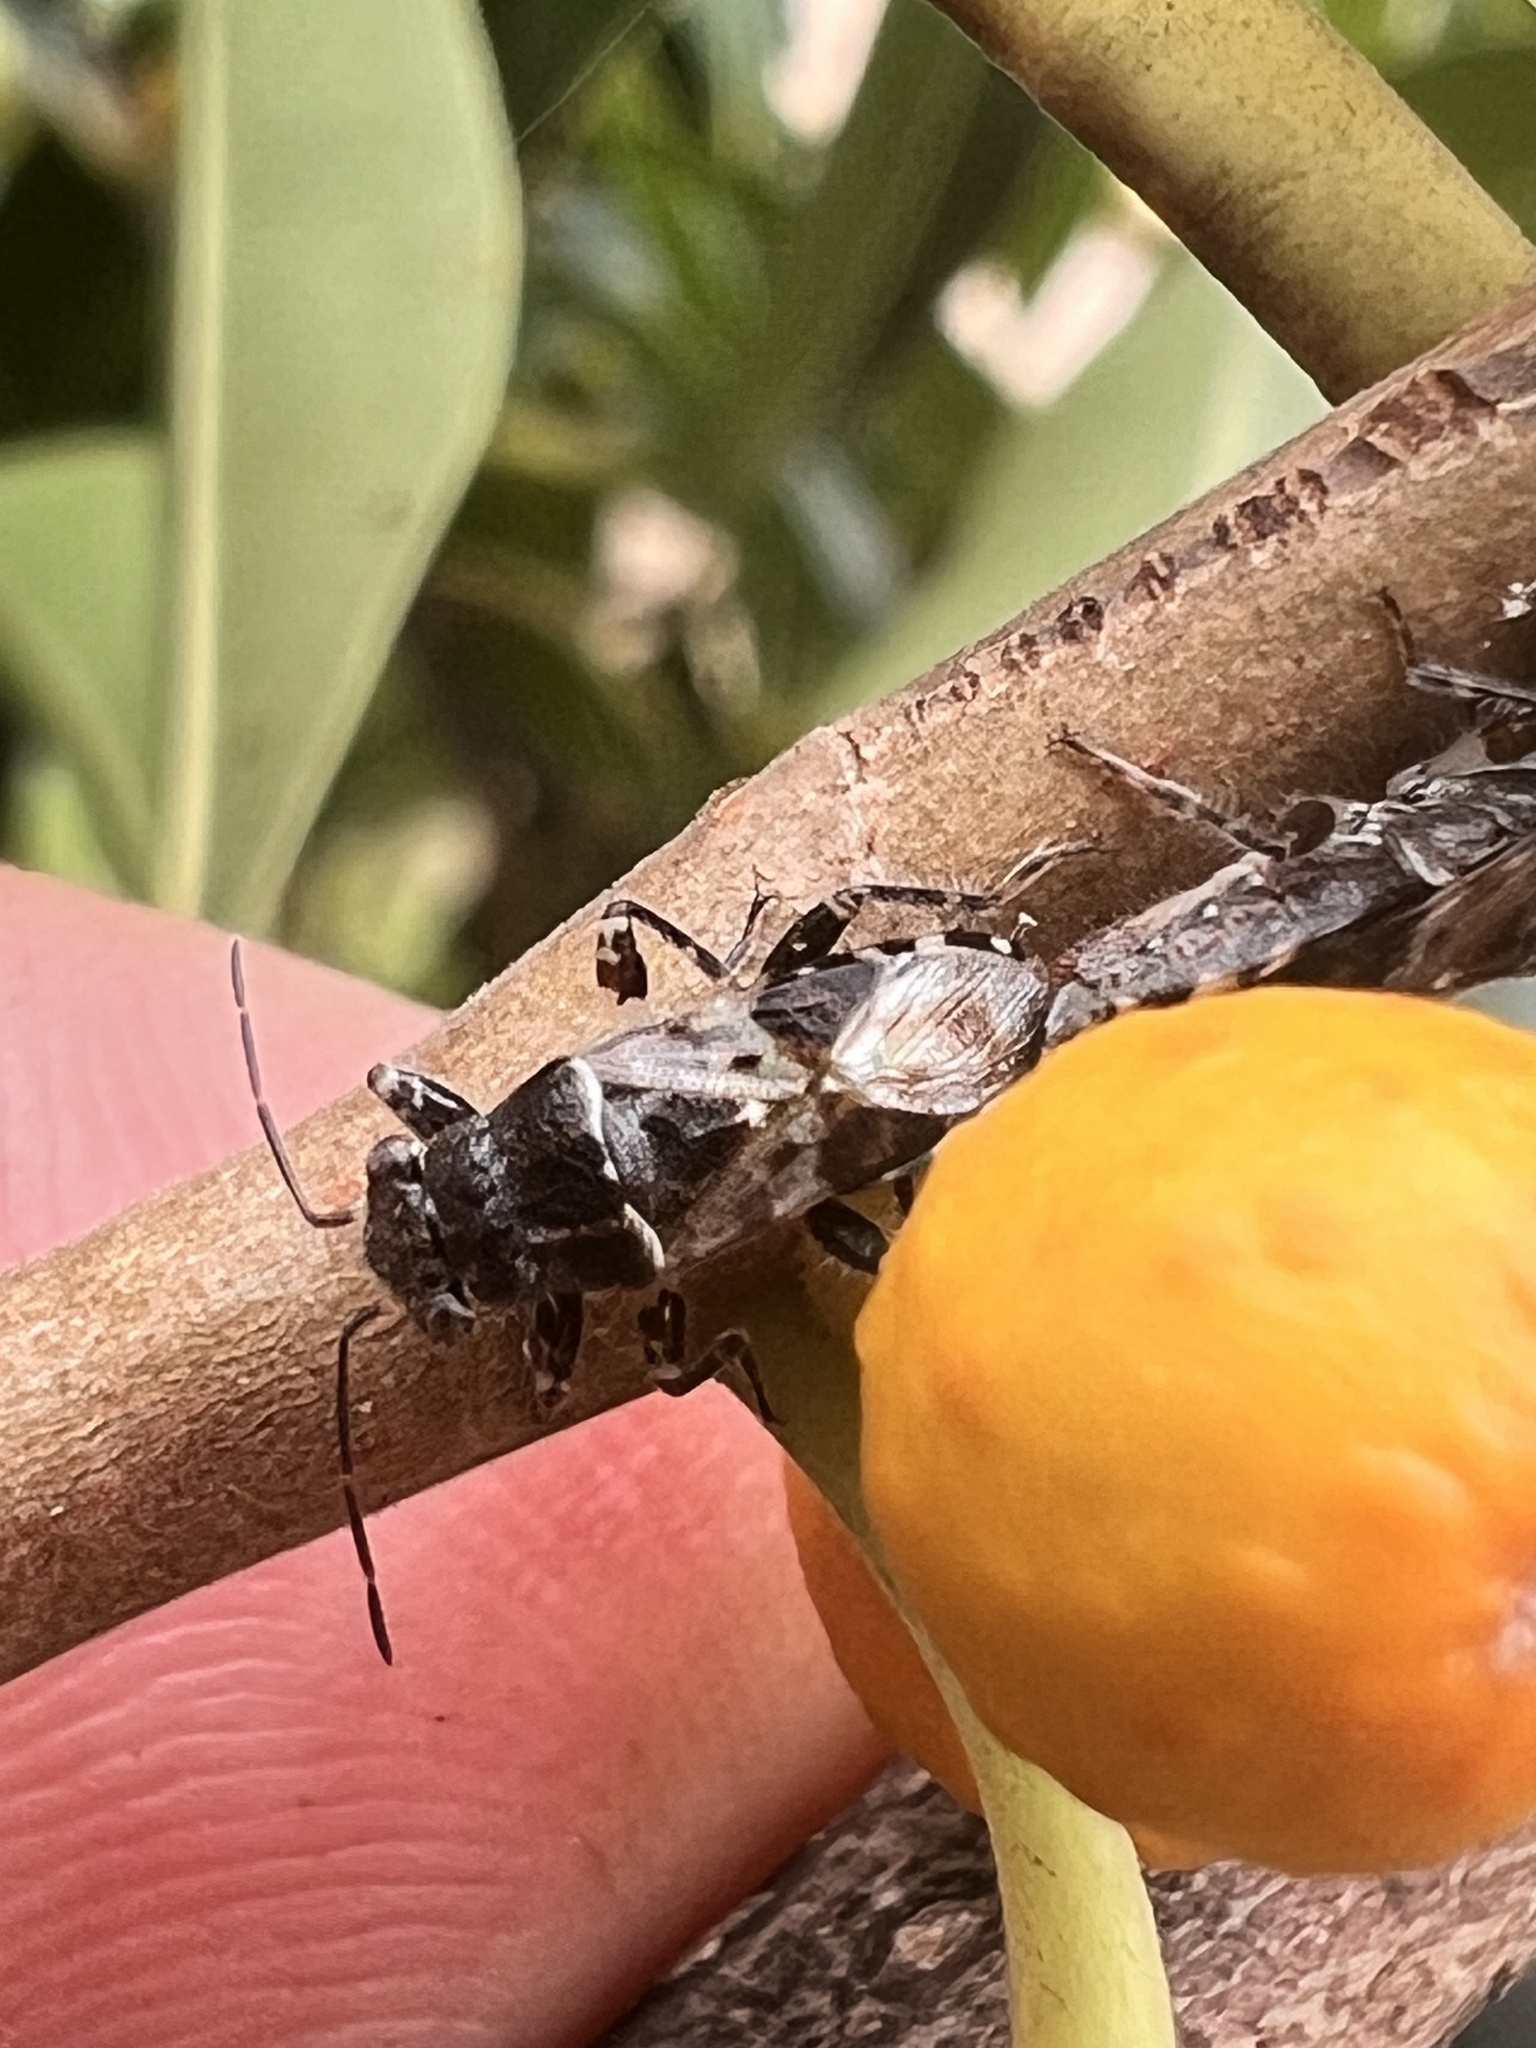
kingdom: Animalia
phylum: Arthropoda
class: Insecta
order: Hemiptera
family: Heterogastridae
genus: Dinomachus
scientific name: Dinomachus australis
